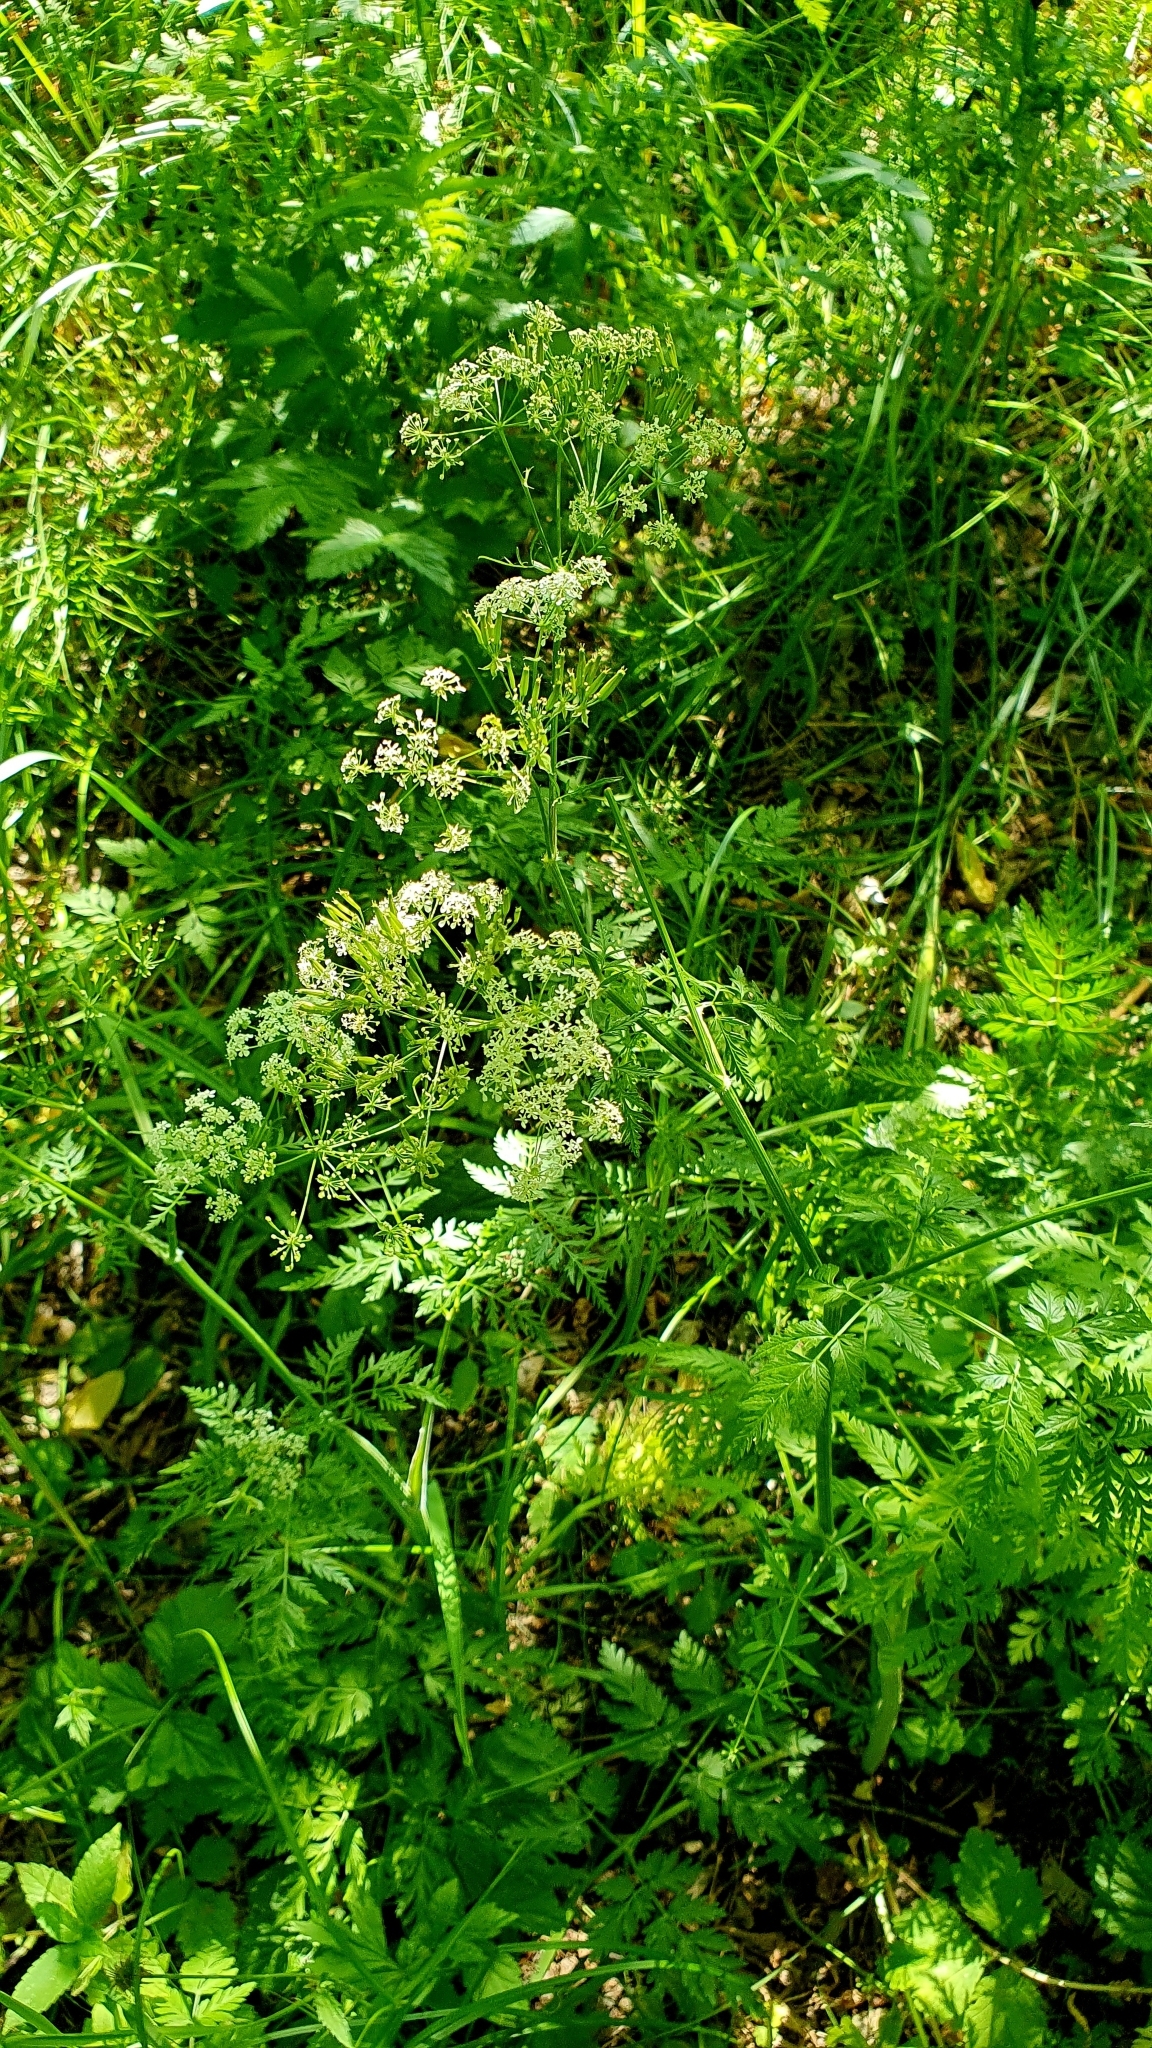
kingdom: Plantae
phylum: Tracheophyta
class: Magnoliopsida
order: Apiales
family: Apiaceae
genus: Anthriscus
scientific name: Anthriscus sylvestris
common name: Cow parsley
